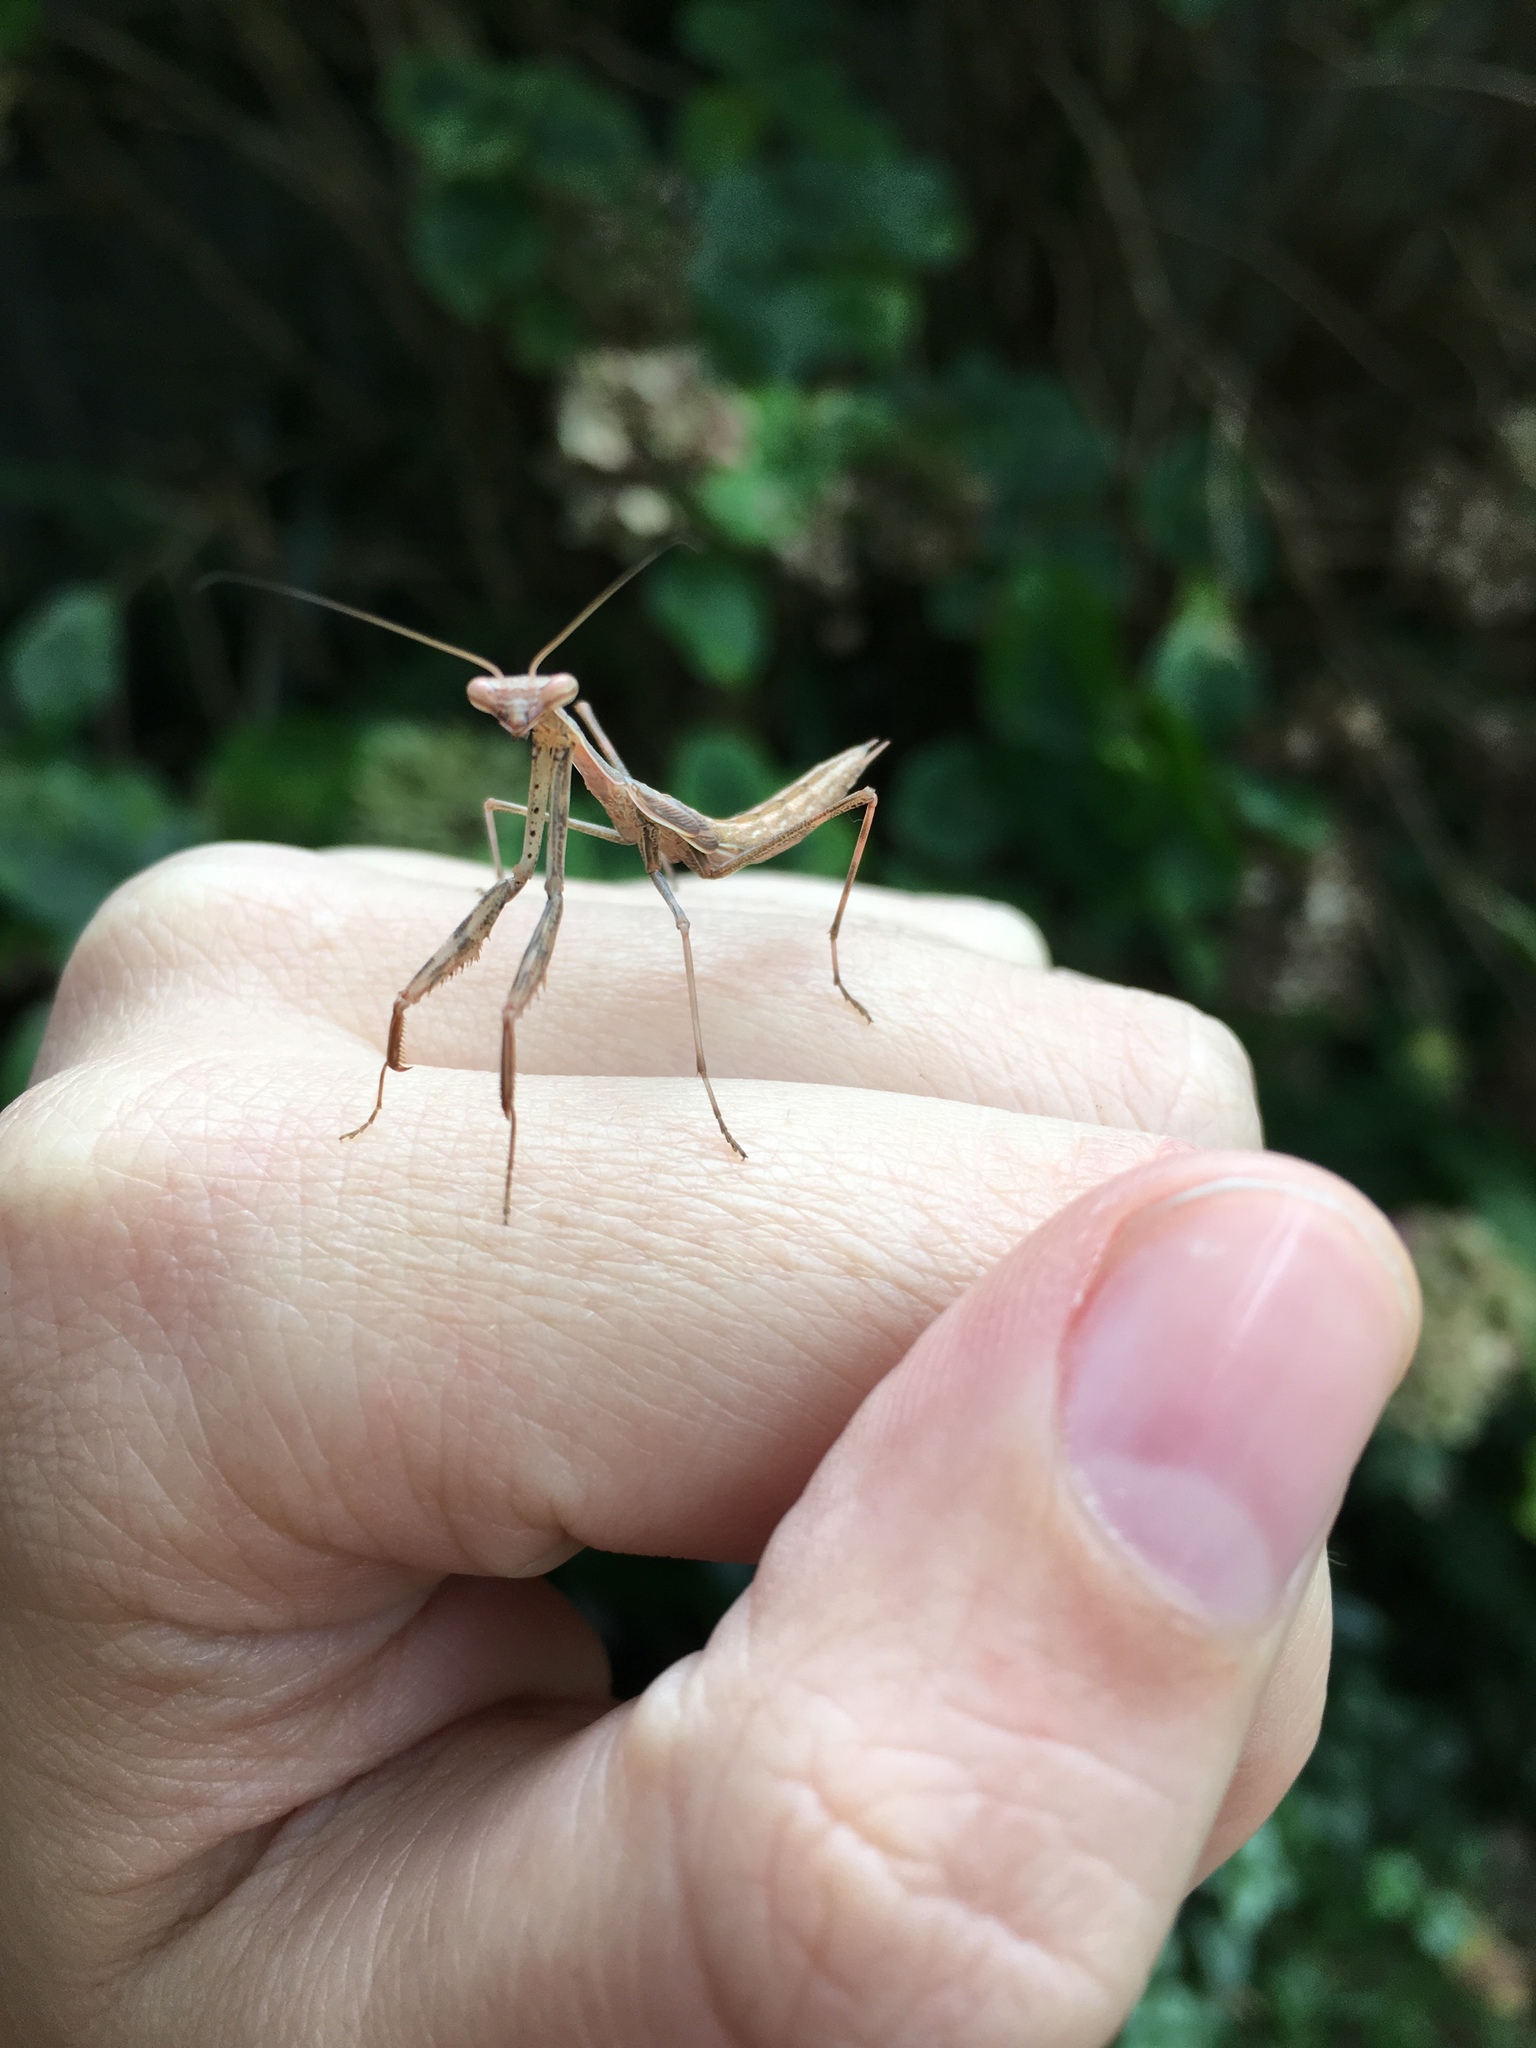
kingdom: Animalia
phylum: Arthropoda
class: Insecta
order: Mantodea
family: Miomantidae
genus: Miomantis
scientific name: Miomantis caffra
